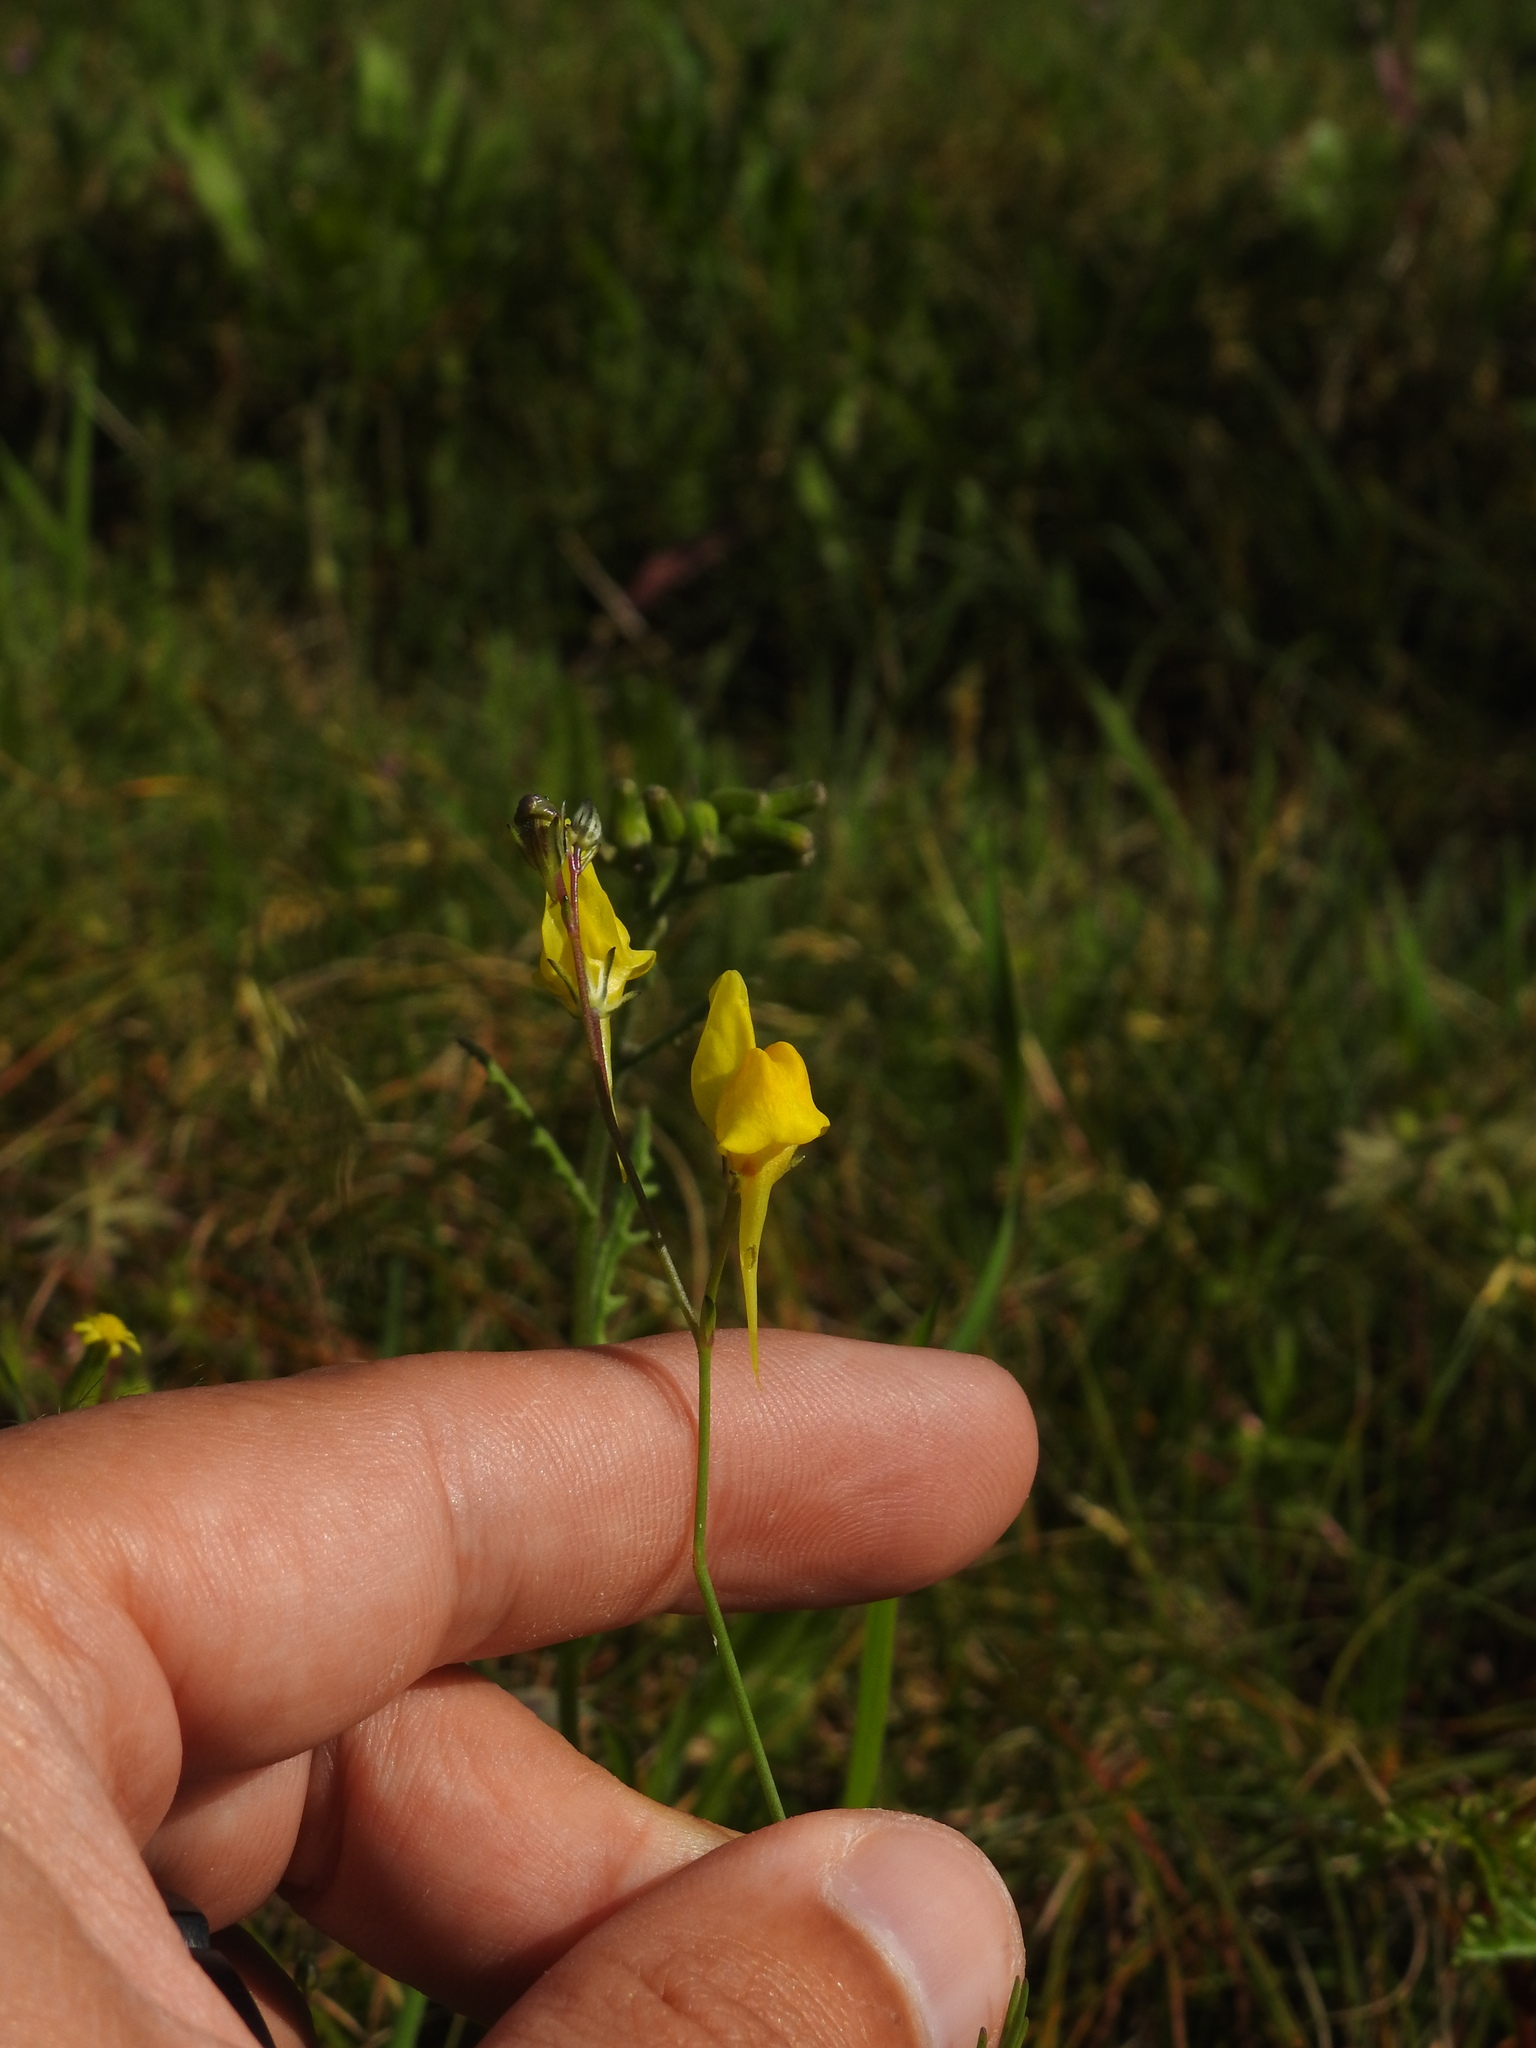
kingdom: Plantae
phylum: Tracheophyta
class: Magnoliopsida
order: Lamiales
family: Plantaginaceae
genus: Linaria
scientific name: Linaria spartea
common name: Ballast toadflax
